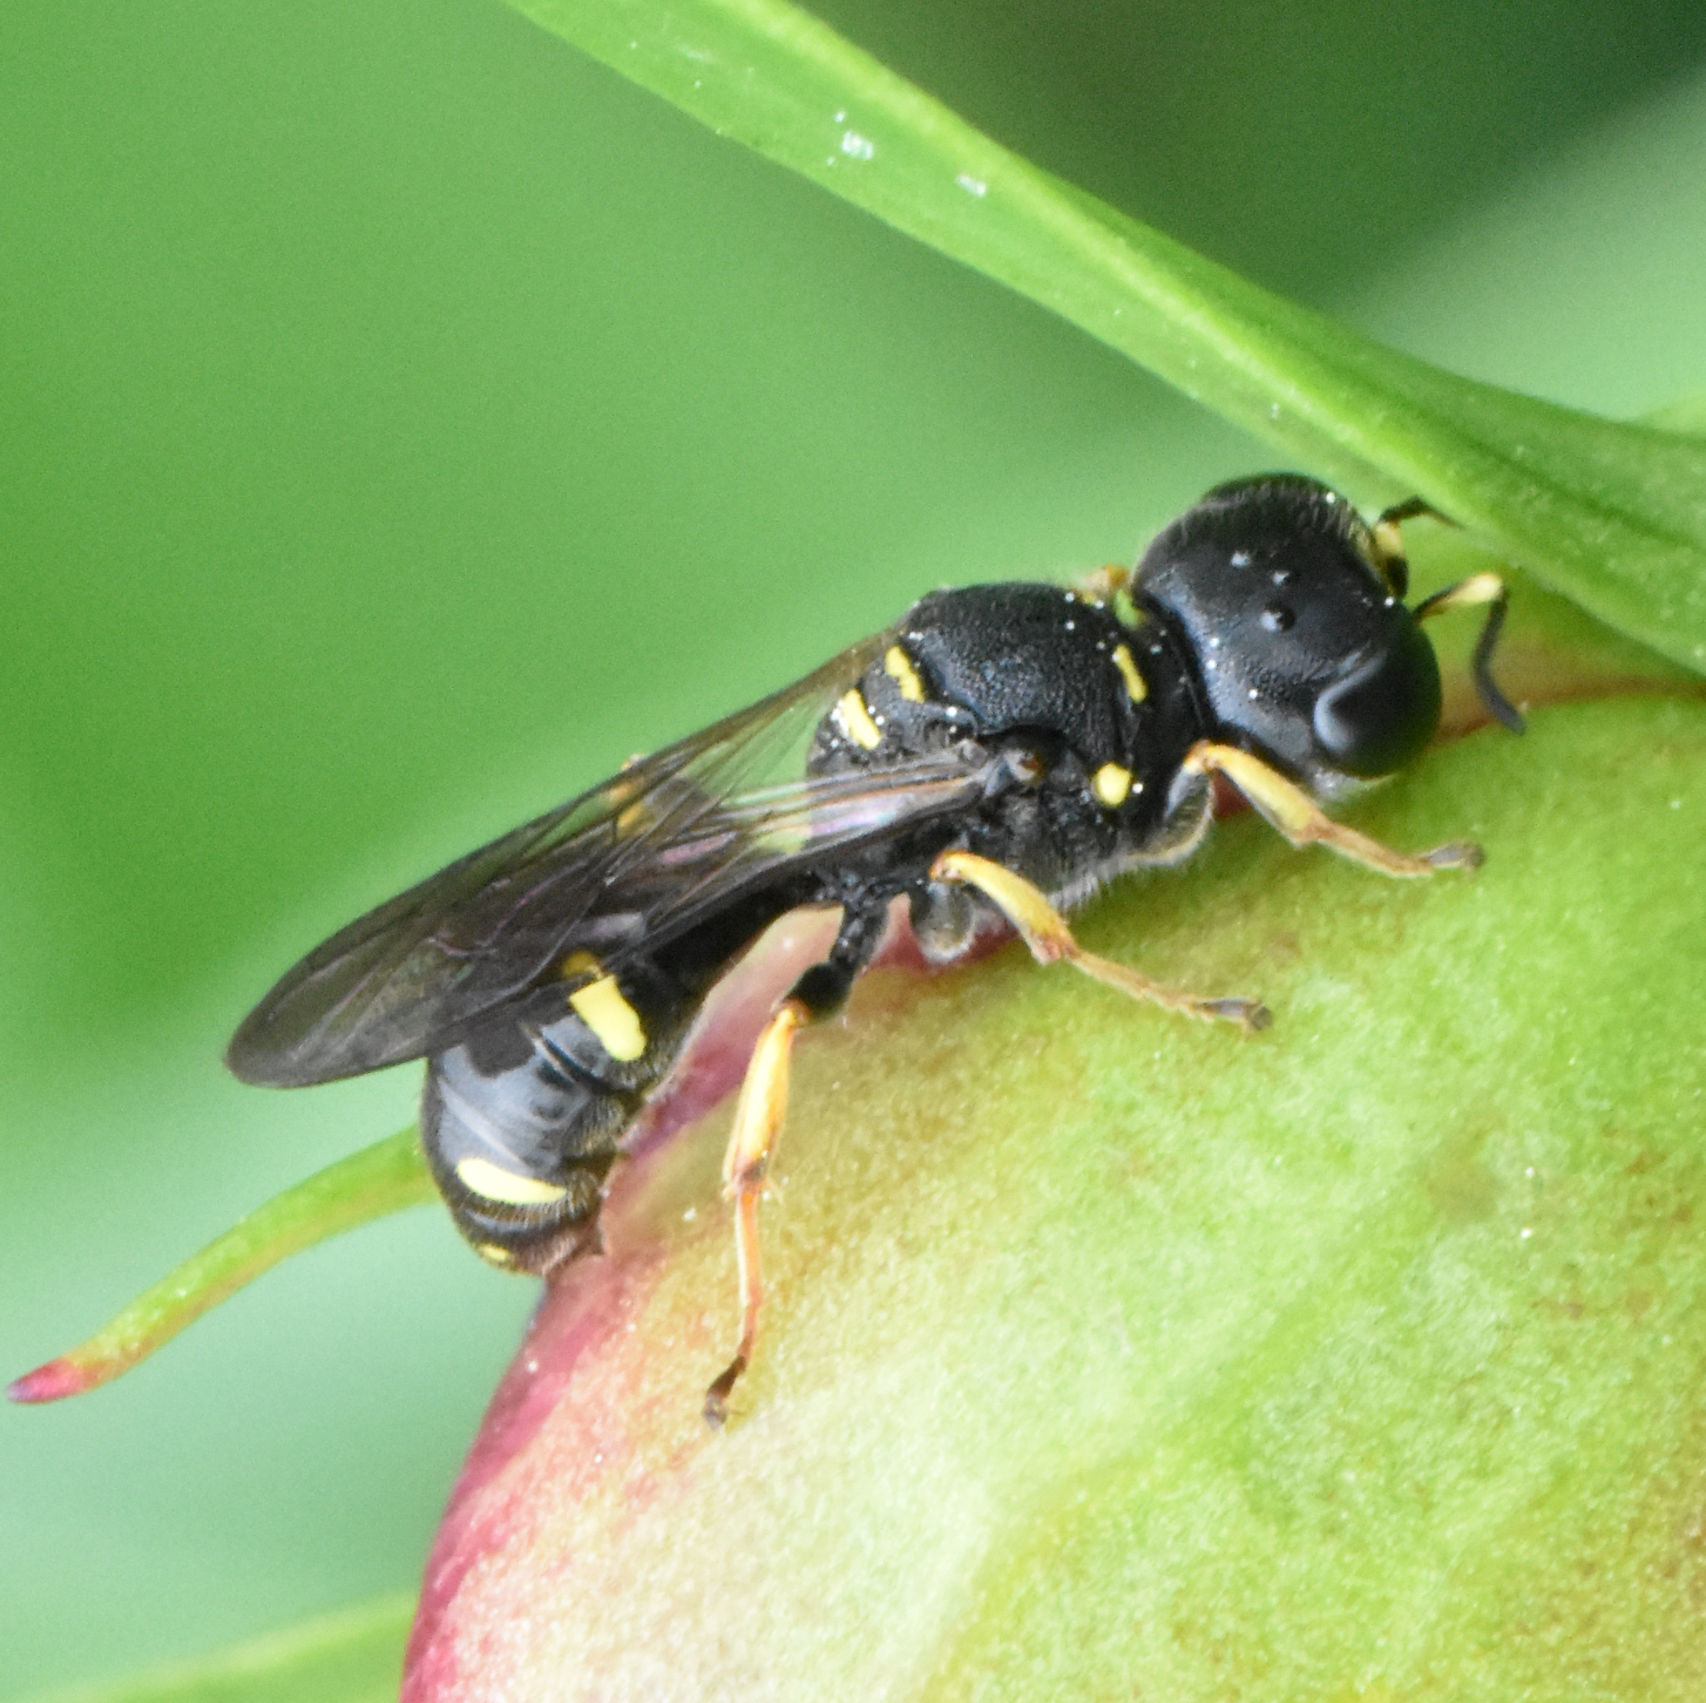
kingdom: Animalia
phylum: Arthropoda
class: Insecta
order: Hymenoptera
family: Crabronidae
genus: Ectemnius
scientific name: Ectemnius continuus
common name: Common ectemnius
